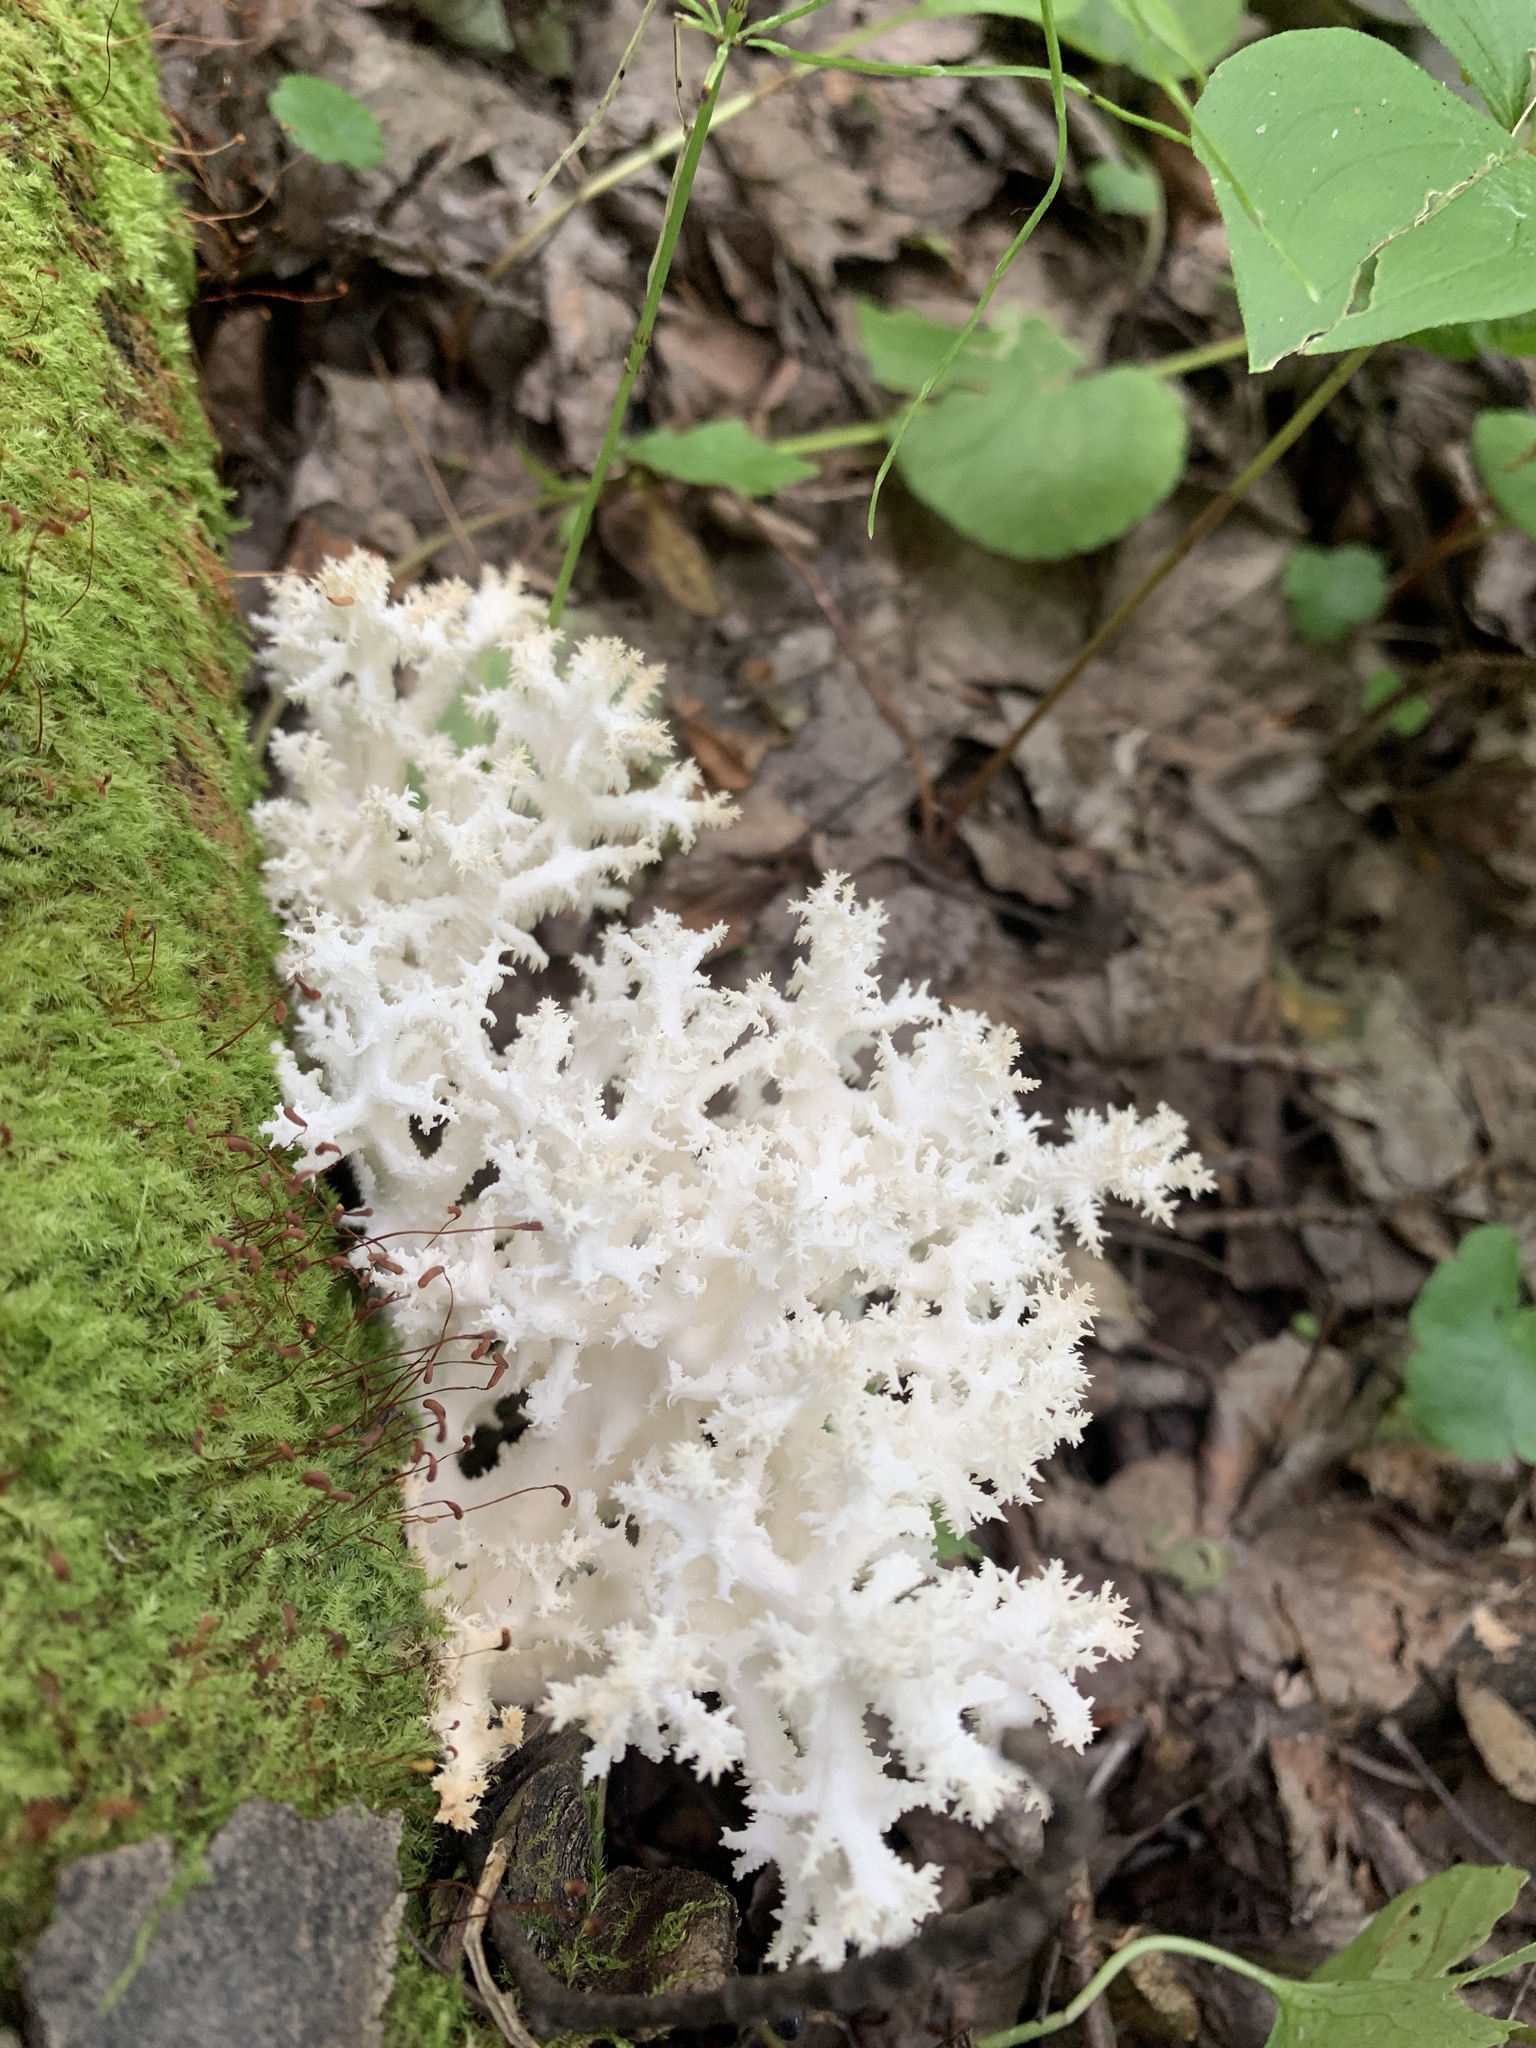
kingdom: Fungi
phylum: Basidiomycota
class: Agaricomycetes
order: Russulales
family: Hericiaceae
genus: Hericium
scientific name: Hericium coralloides
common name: Coral tooth
